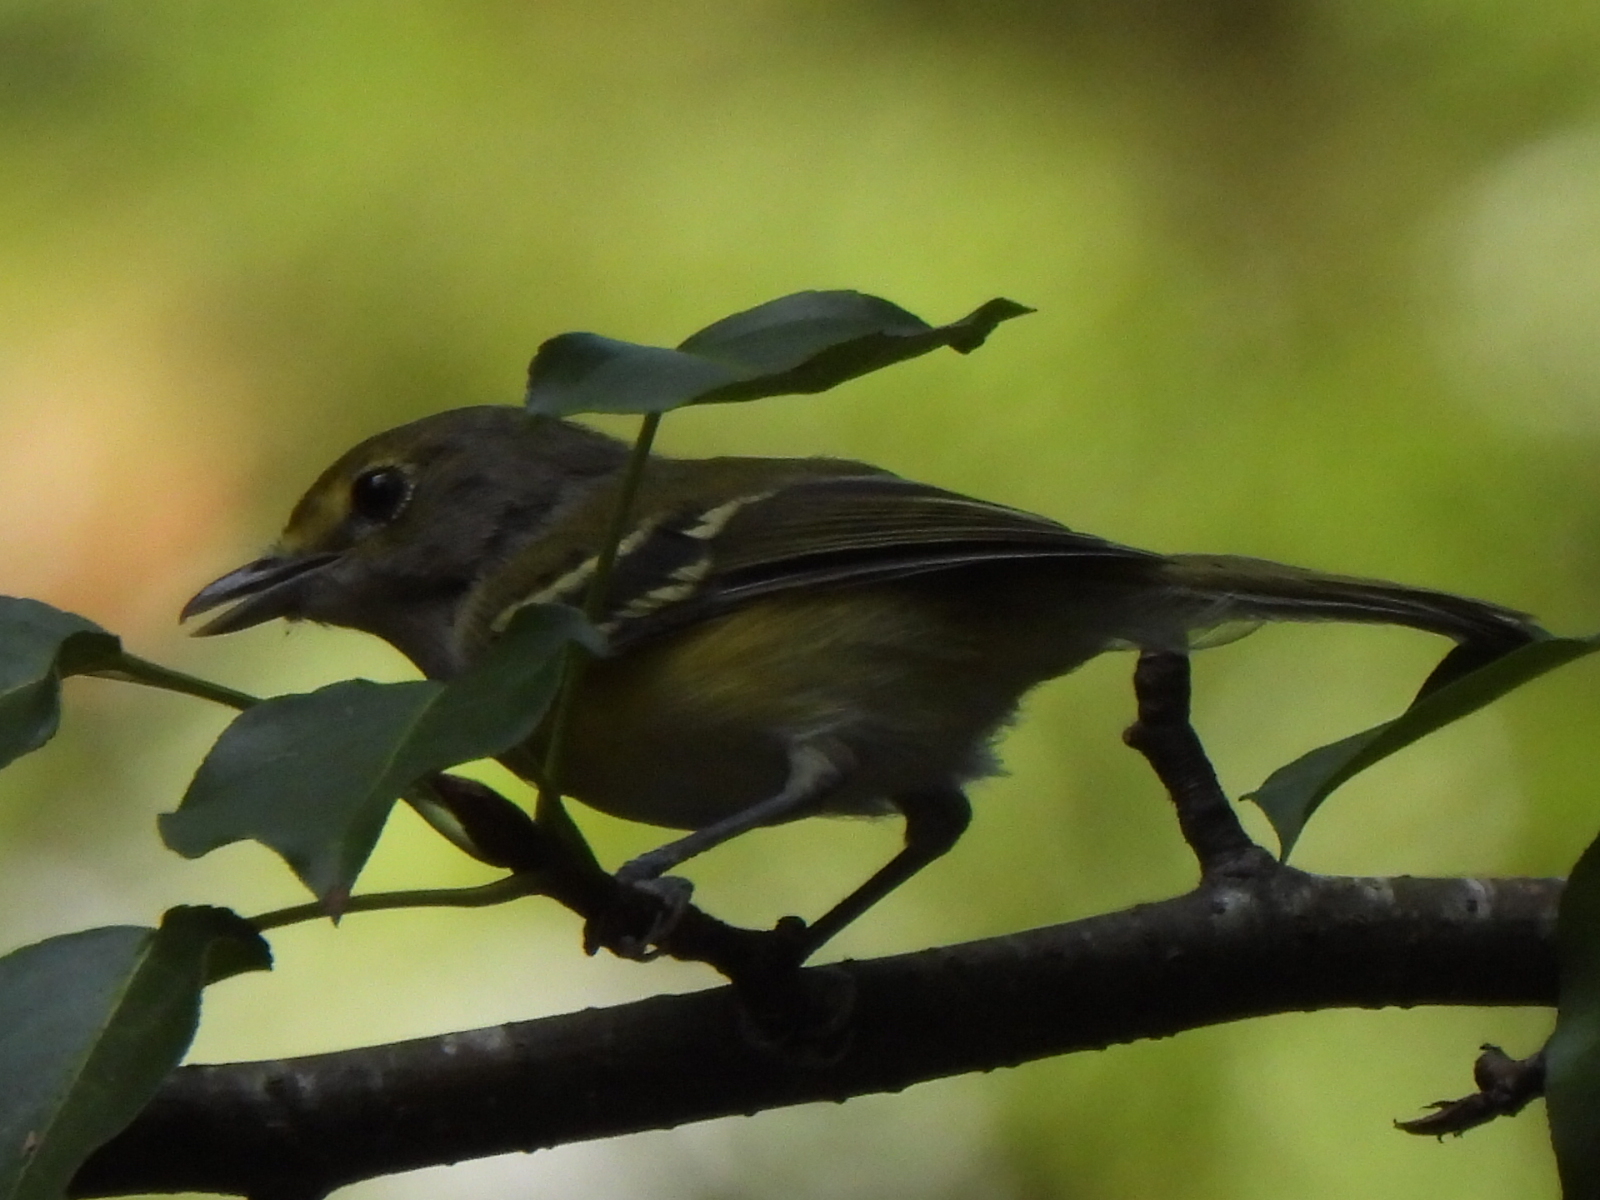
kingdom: Animalia
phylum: Chordata
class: Aves
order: Passeriformes
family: Vireonidae
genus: Vireo
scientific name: Vireo griseus
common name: White-eyed vireo
